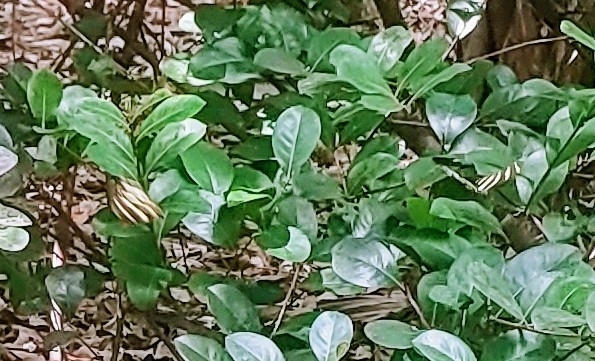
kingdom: Animalia
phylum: Arthropoda
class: Insecta
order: Lepidoptera
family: Nymphalidae
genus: Heliconius
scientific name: Heliconius charithonia
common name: Zebra long wing
